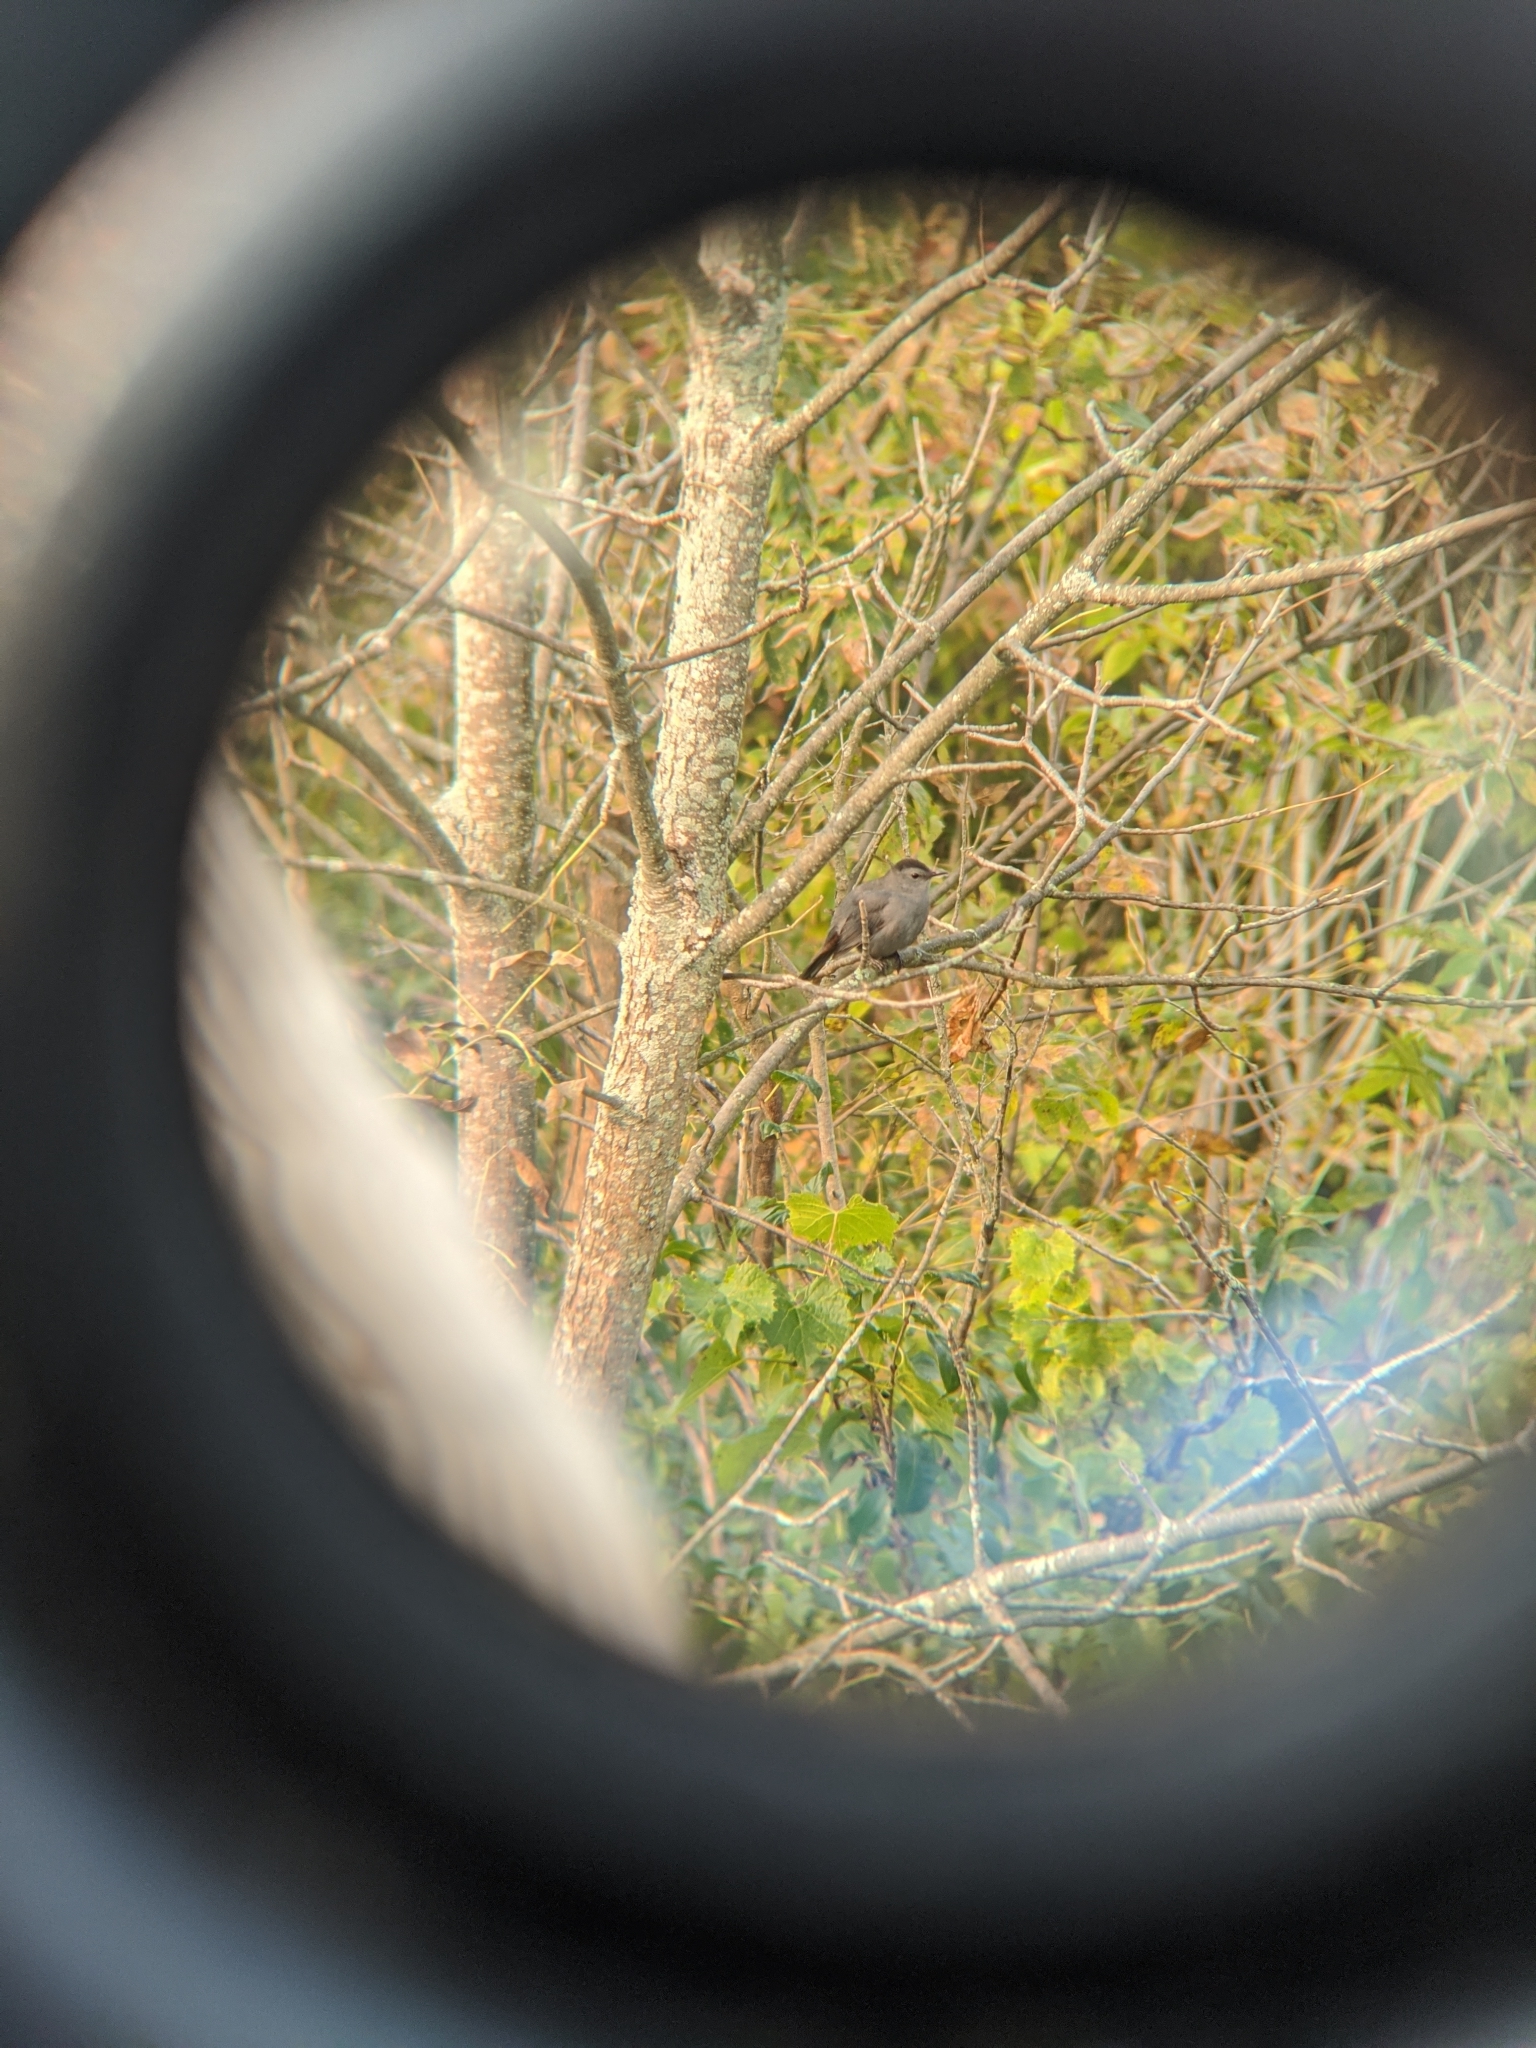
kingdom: Animalia
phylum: Chordata
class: Aves
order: Passeriformes
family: Mimidae
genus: Dumetella
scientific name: Dumetella carolinensis
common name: Gray catbird
